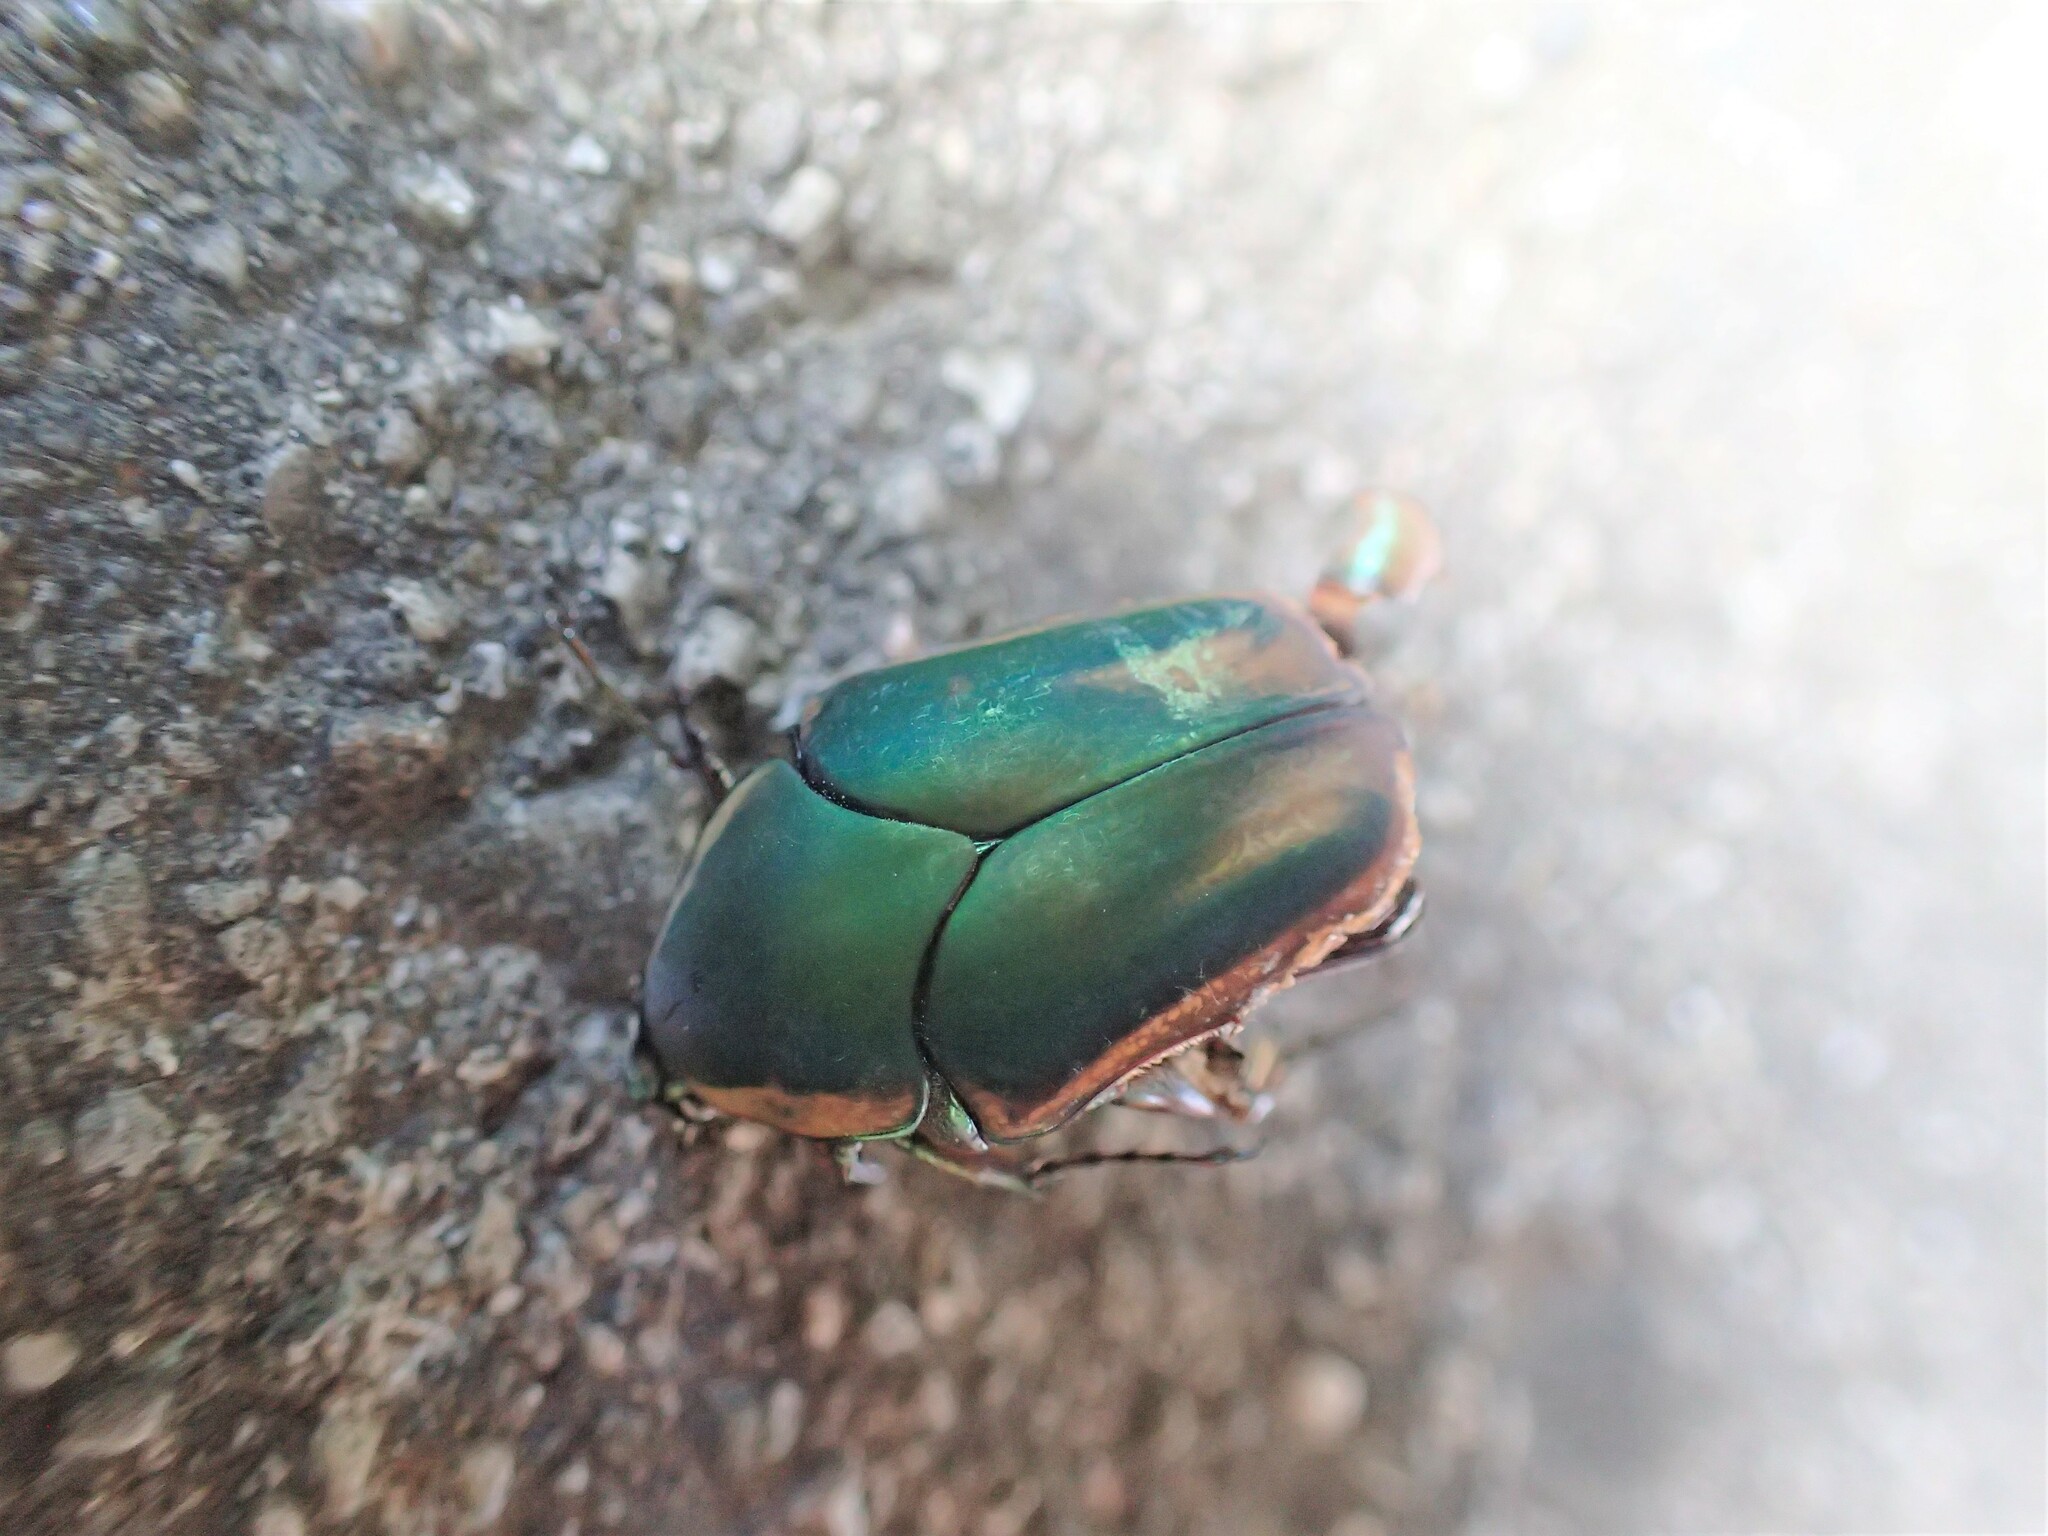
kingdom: Animalia
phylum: Arthropoda
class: Insecta
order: Coleoptera
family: Scarabaeidae
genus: Cotinis
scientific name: Cotinis nitida
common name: Common green june beetle
